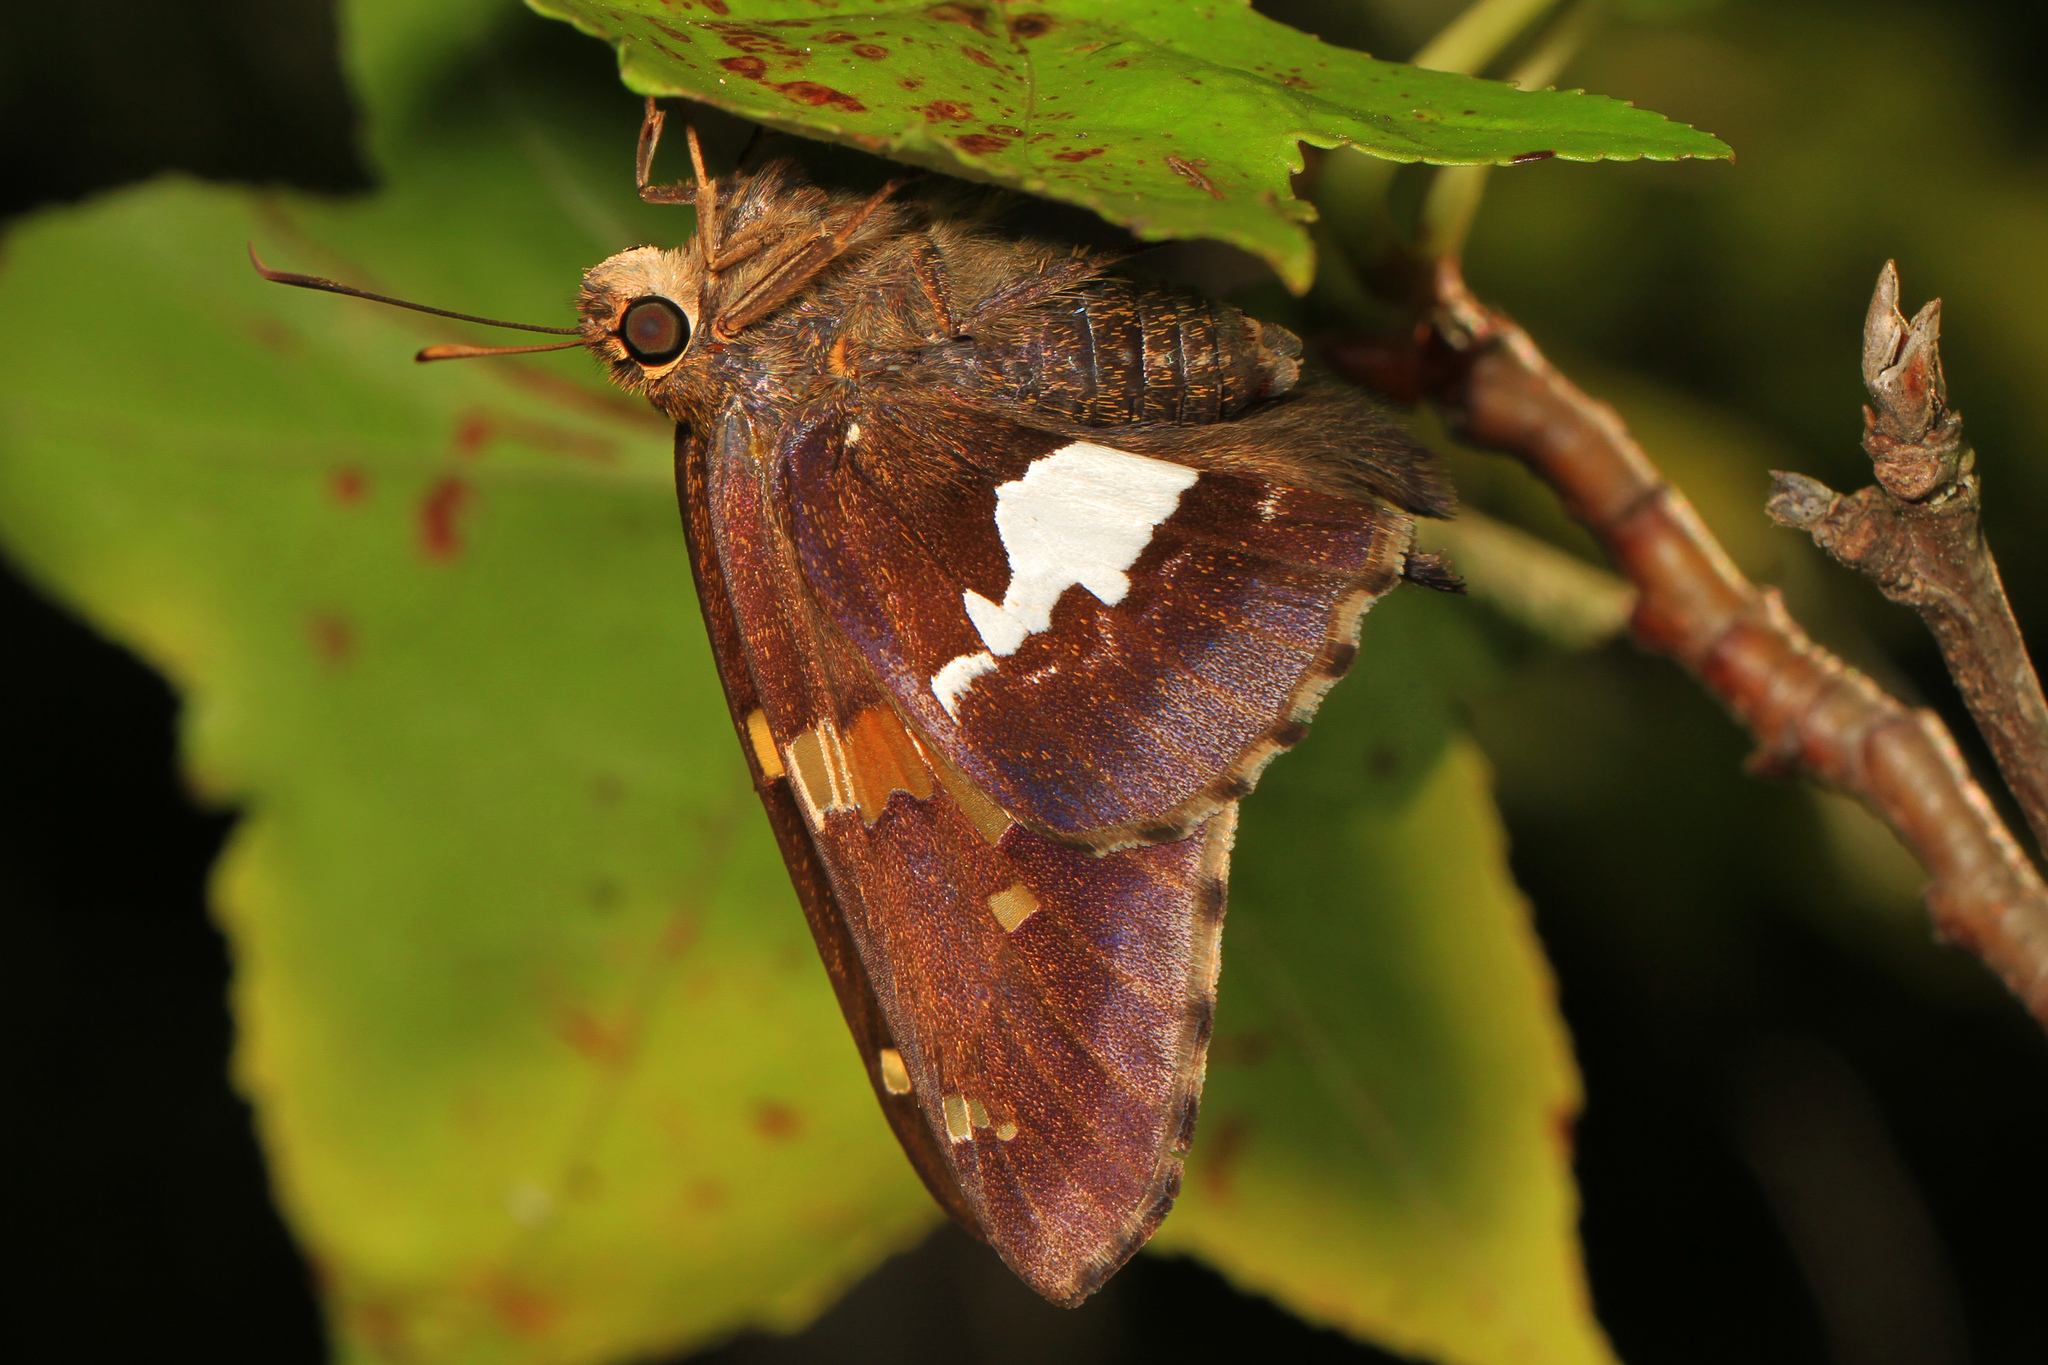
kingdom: Animalia
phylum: Arthropoda
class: Insecta
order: Lepidoptera
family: Hesperiidae
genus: Epargyreus
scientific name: Epargyreus clarus
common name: Silver-spotted skipper
